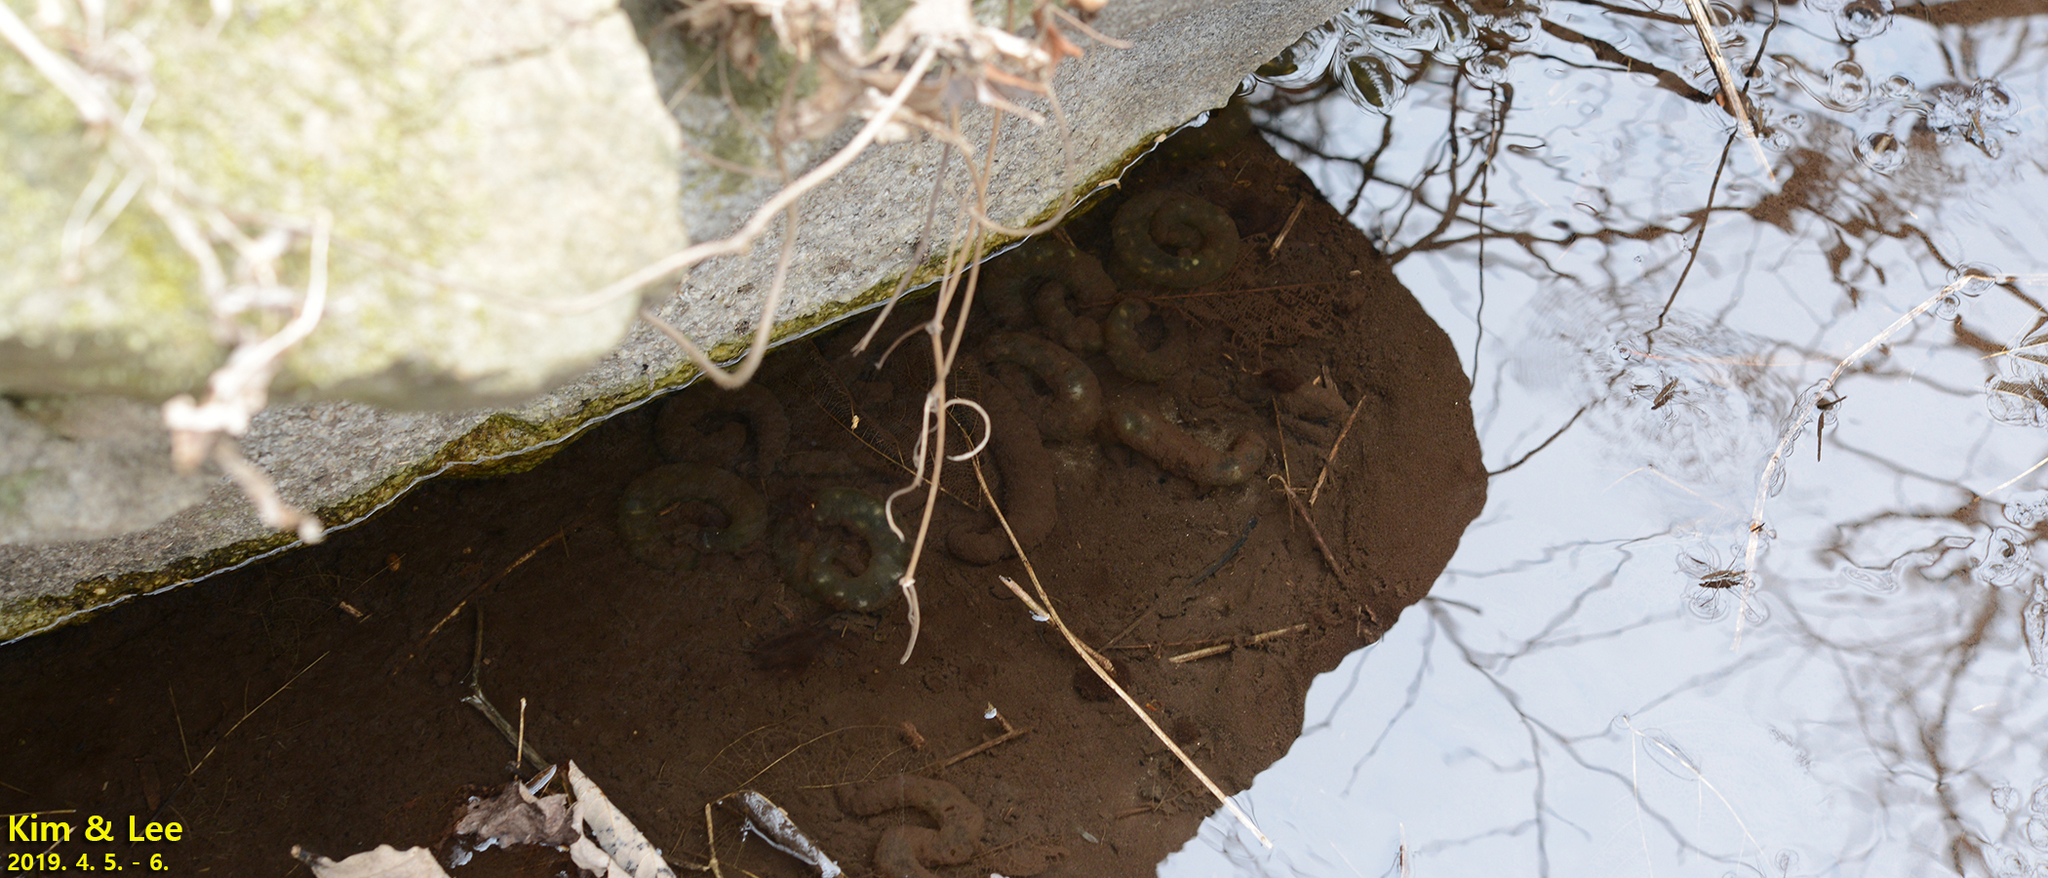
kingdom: Animalia
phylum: Chordata
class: Amphibia
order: Caudata
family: Hynobiidae
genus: Hynobius
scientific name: Hynobius leechii
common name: Gensan salamander
